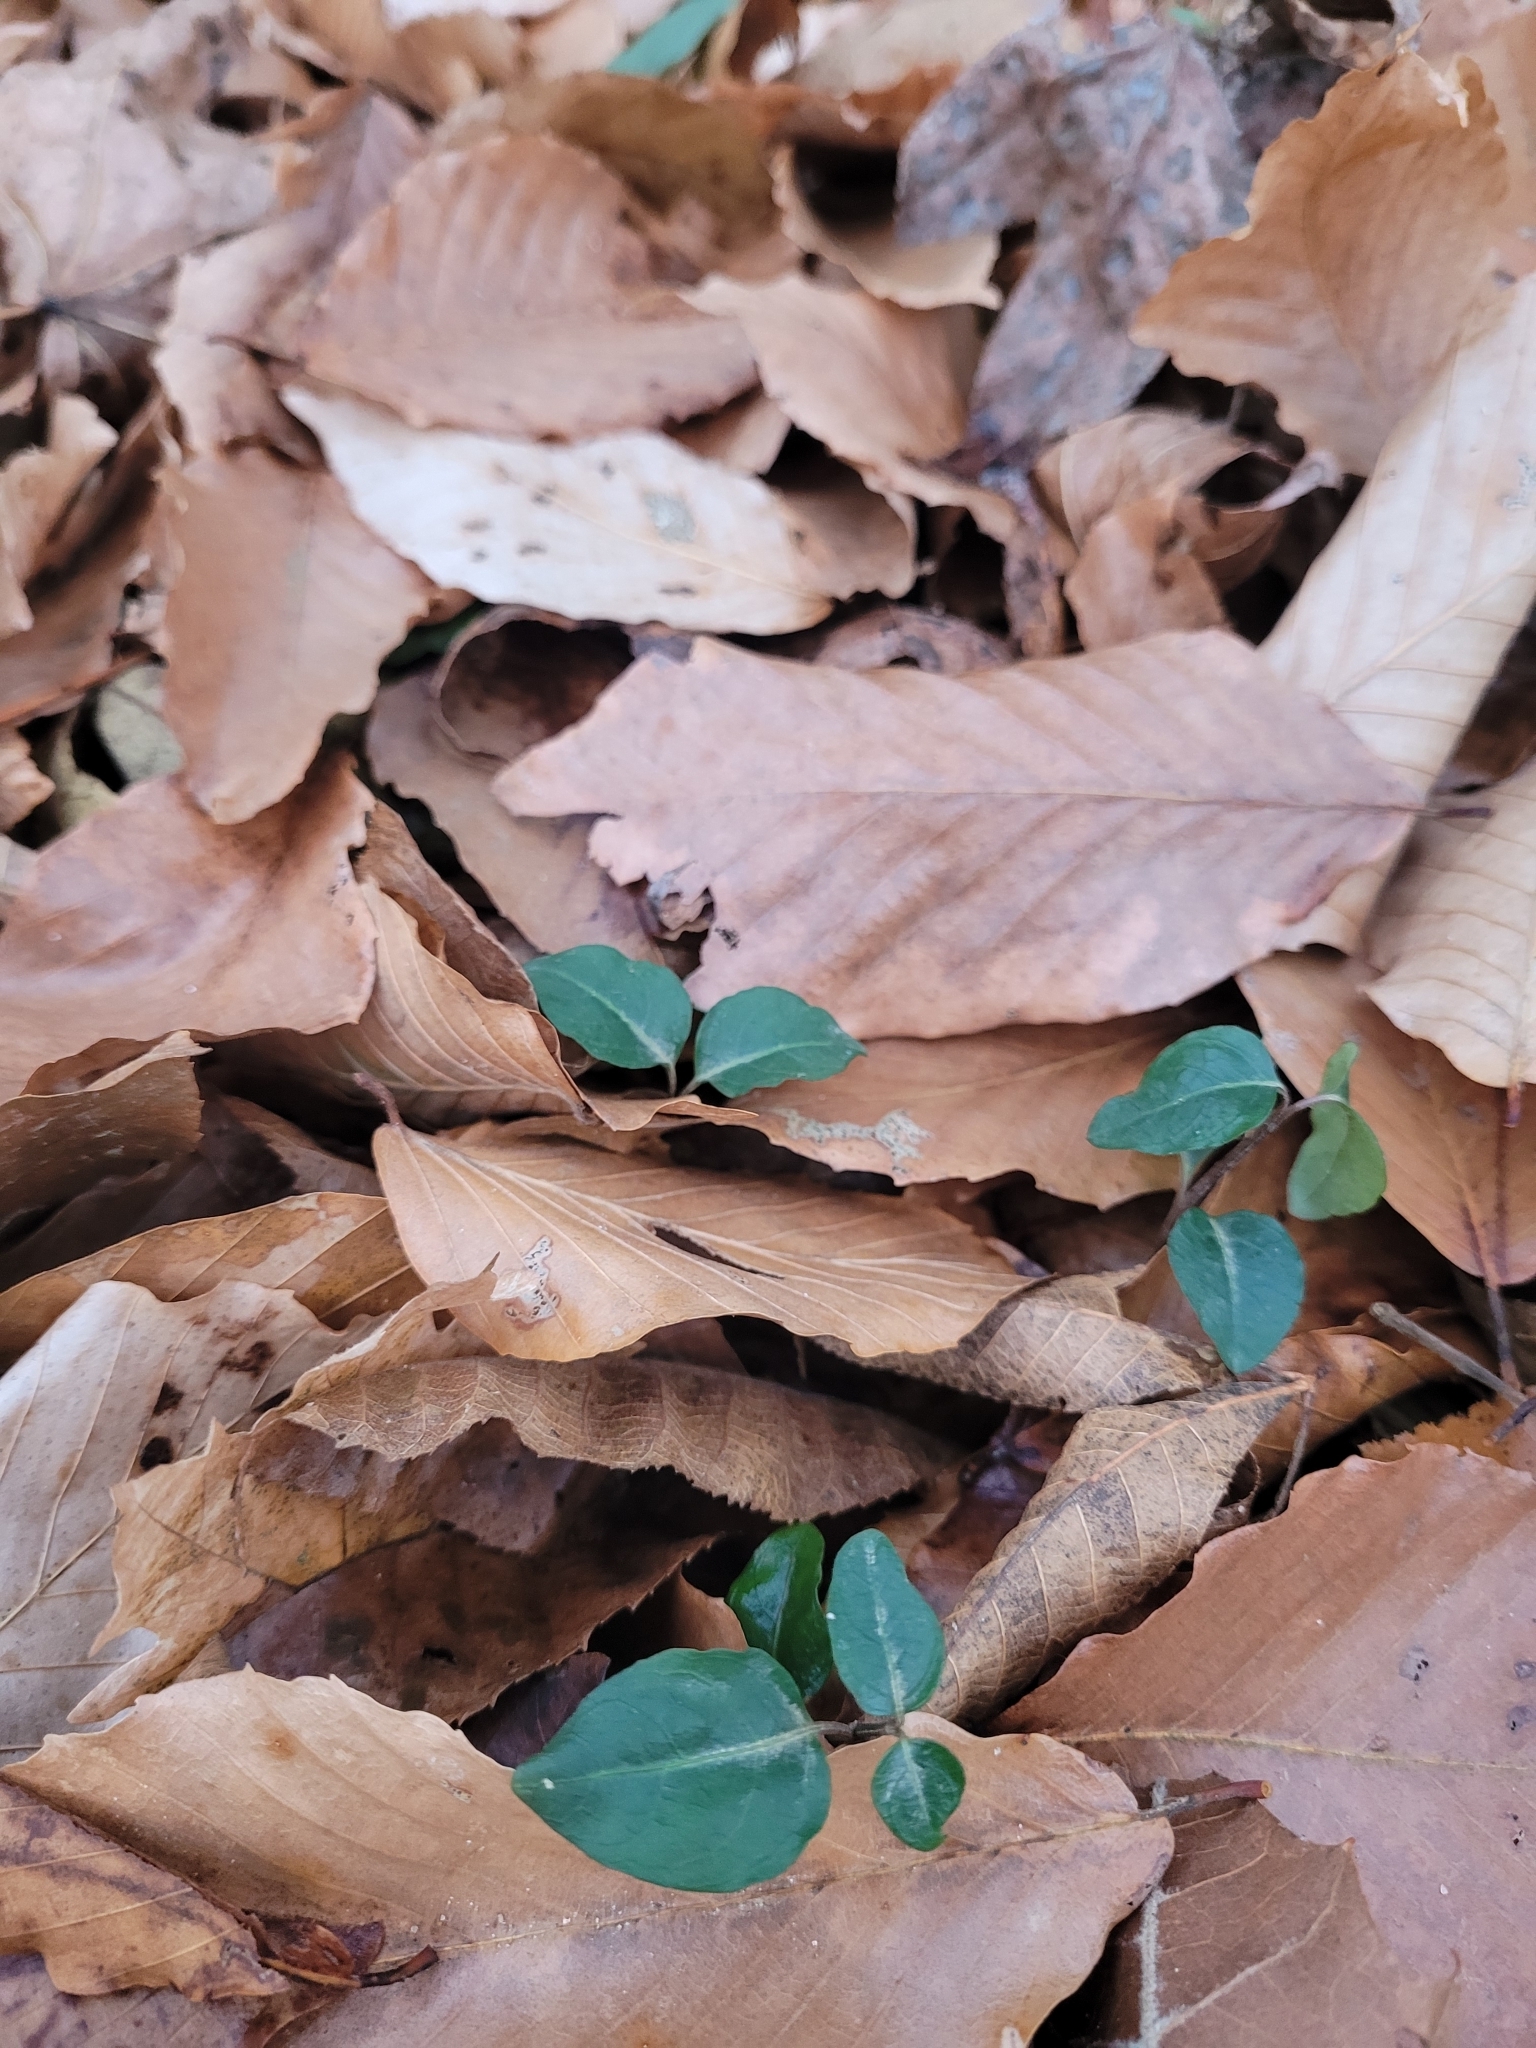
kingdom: Plantae
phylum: Tracheophyta
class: Magnoliopsida
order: Gentianales
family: Rubiaceae
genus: Mitchella
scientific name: Mitchella repens
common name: Partridge-berry
